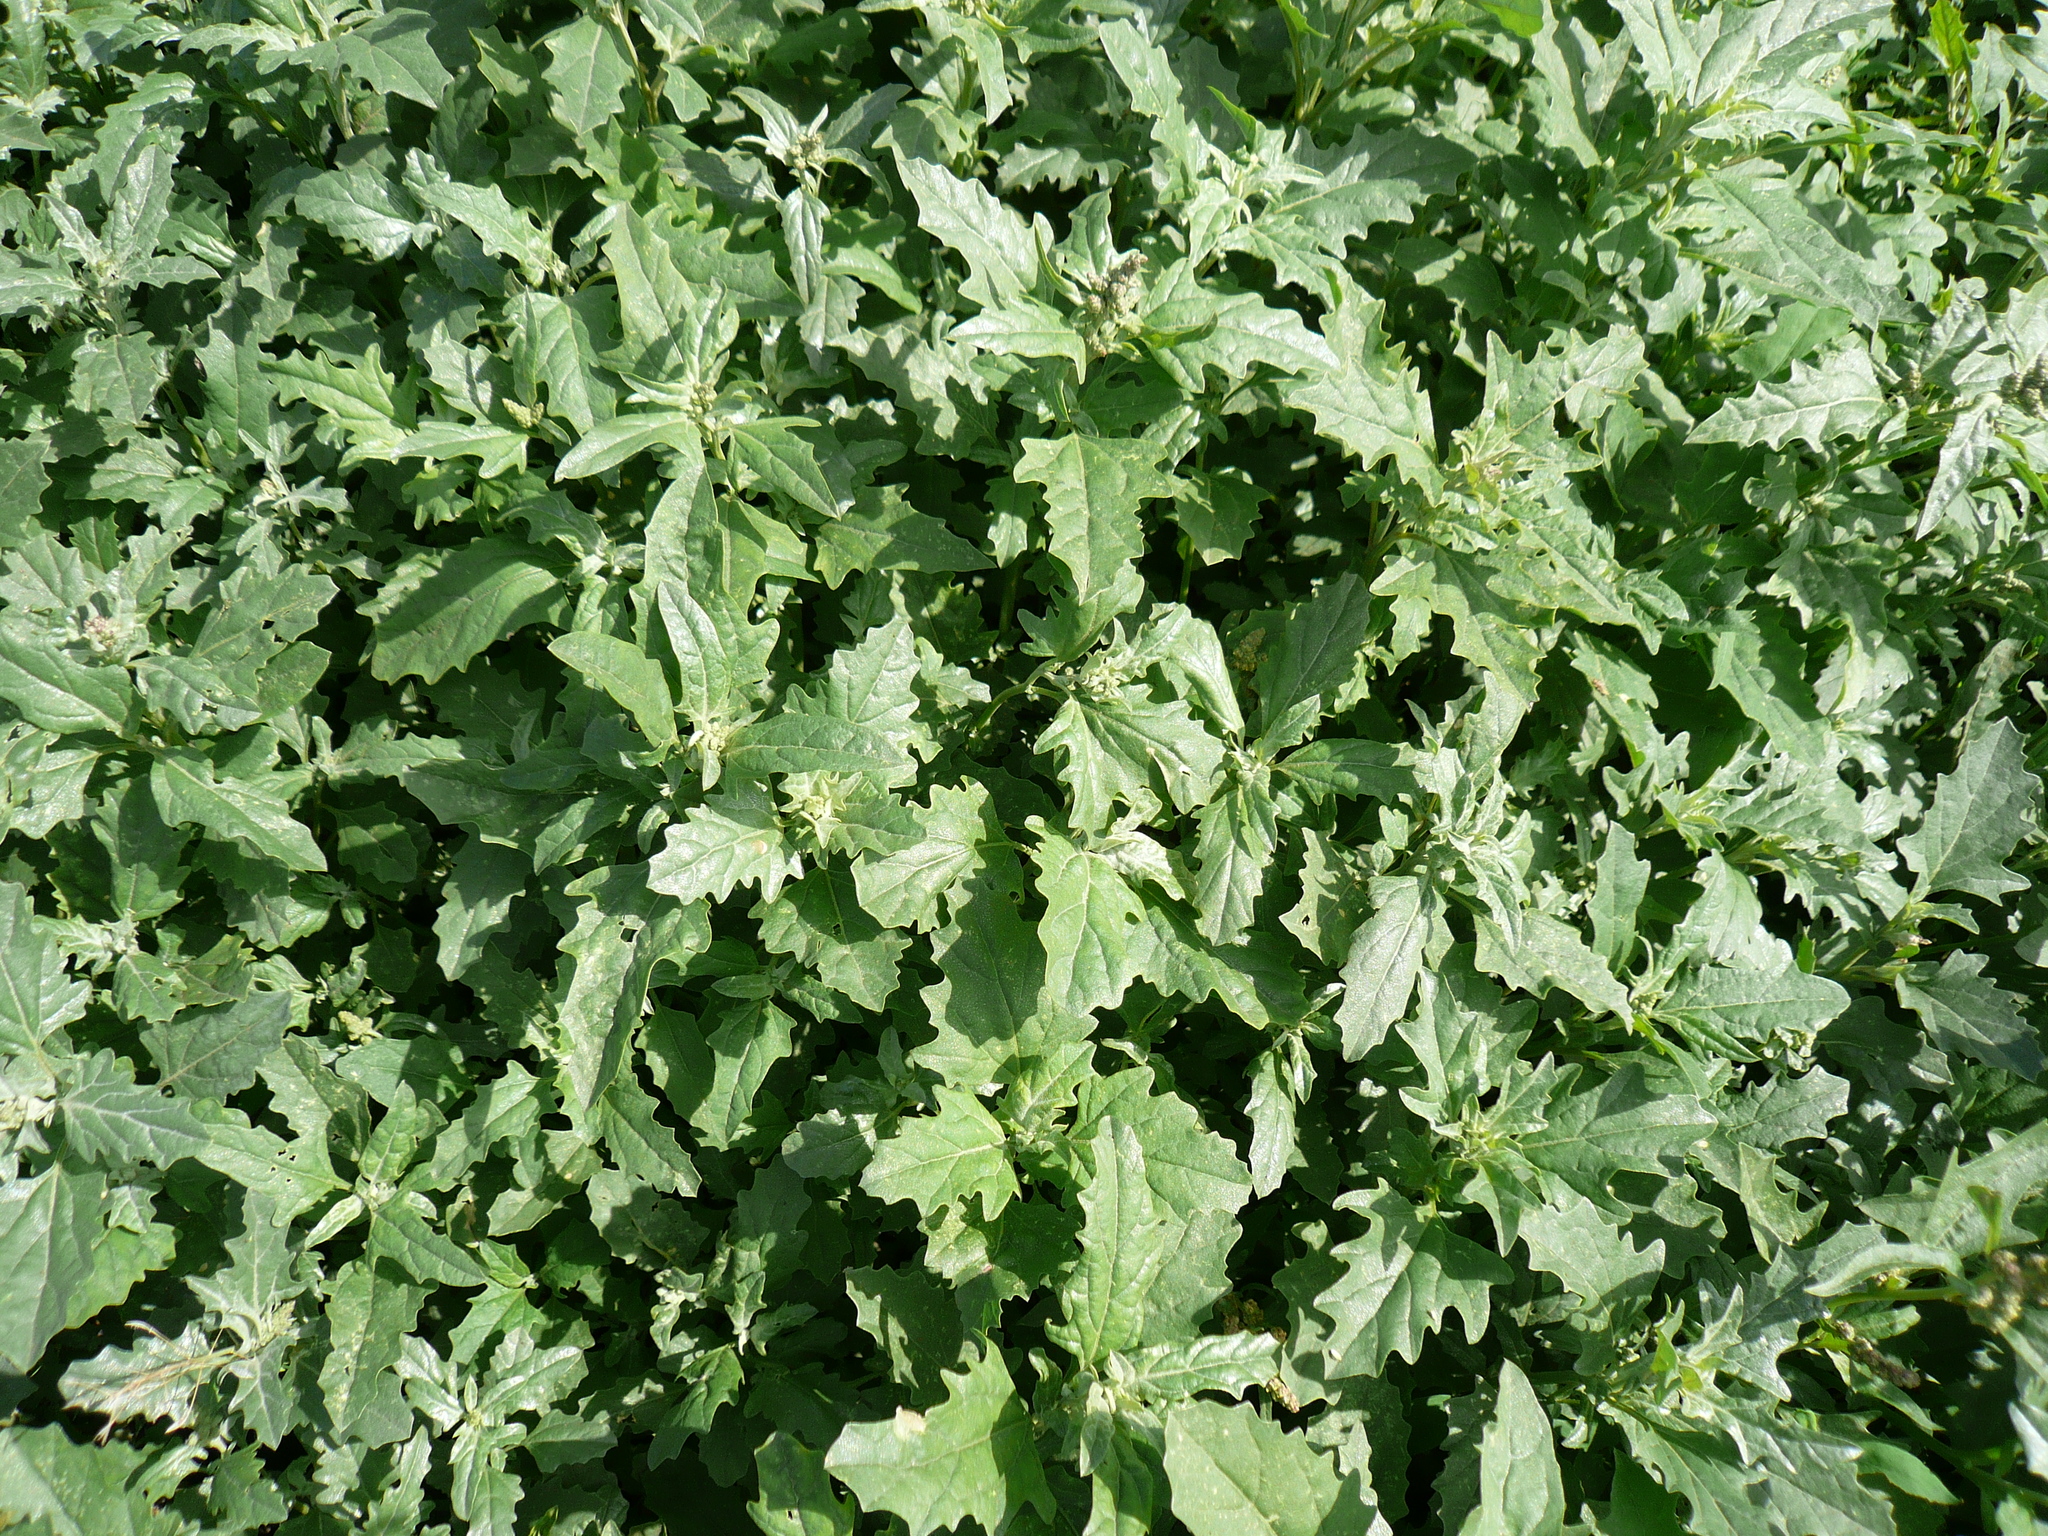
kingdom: Plantae
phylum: Tracheophyta
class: Magnoliopsida
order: Caryophyllales
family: Amaranthaceae
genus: Atriplex
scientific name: Atriplex tatarica
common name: Tatarian orache
